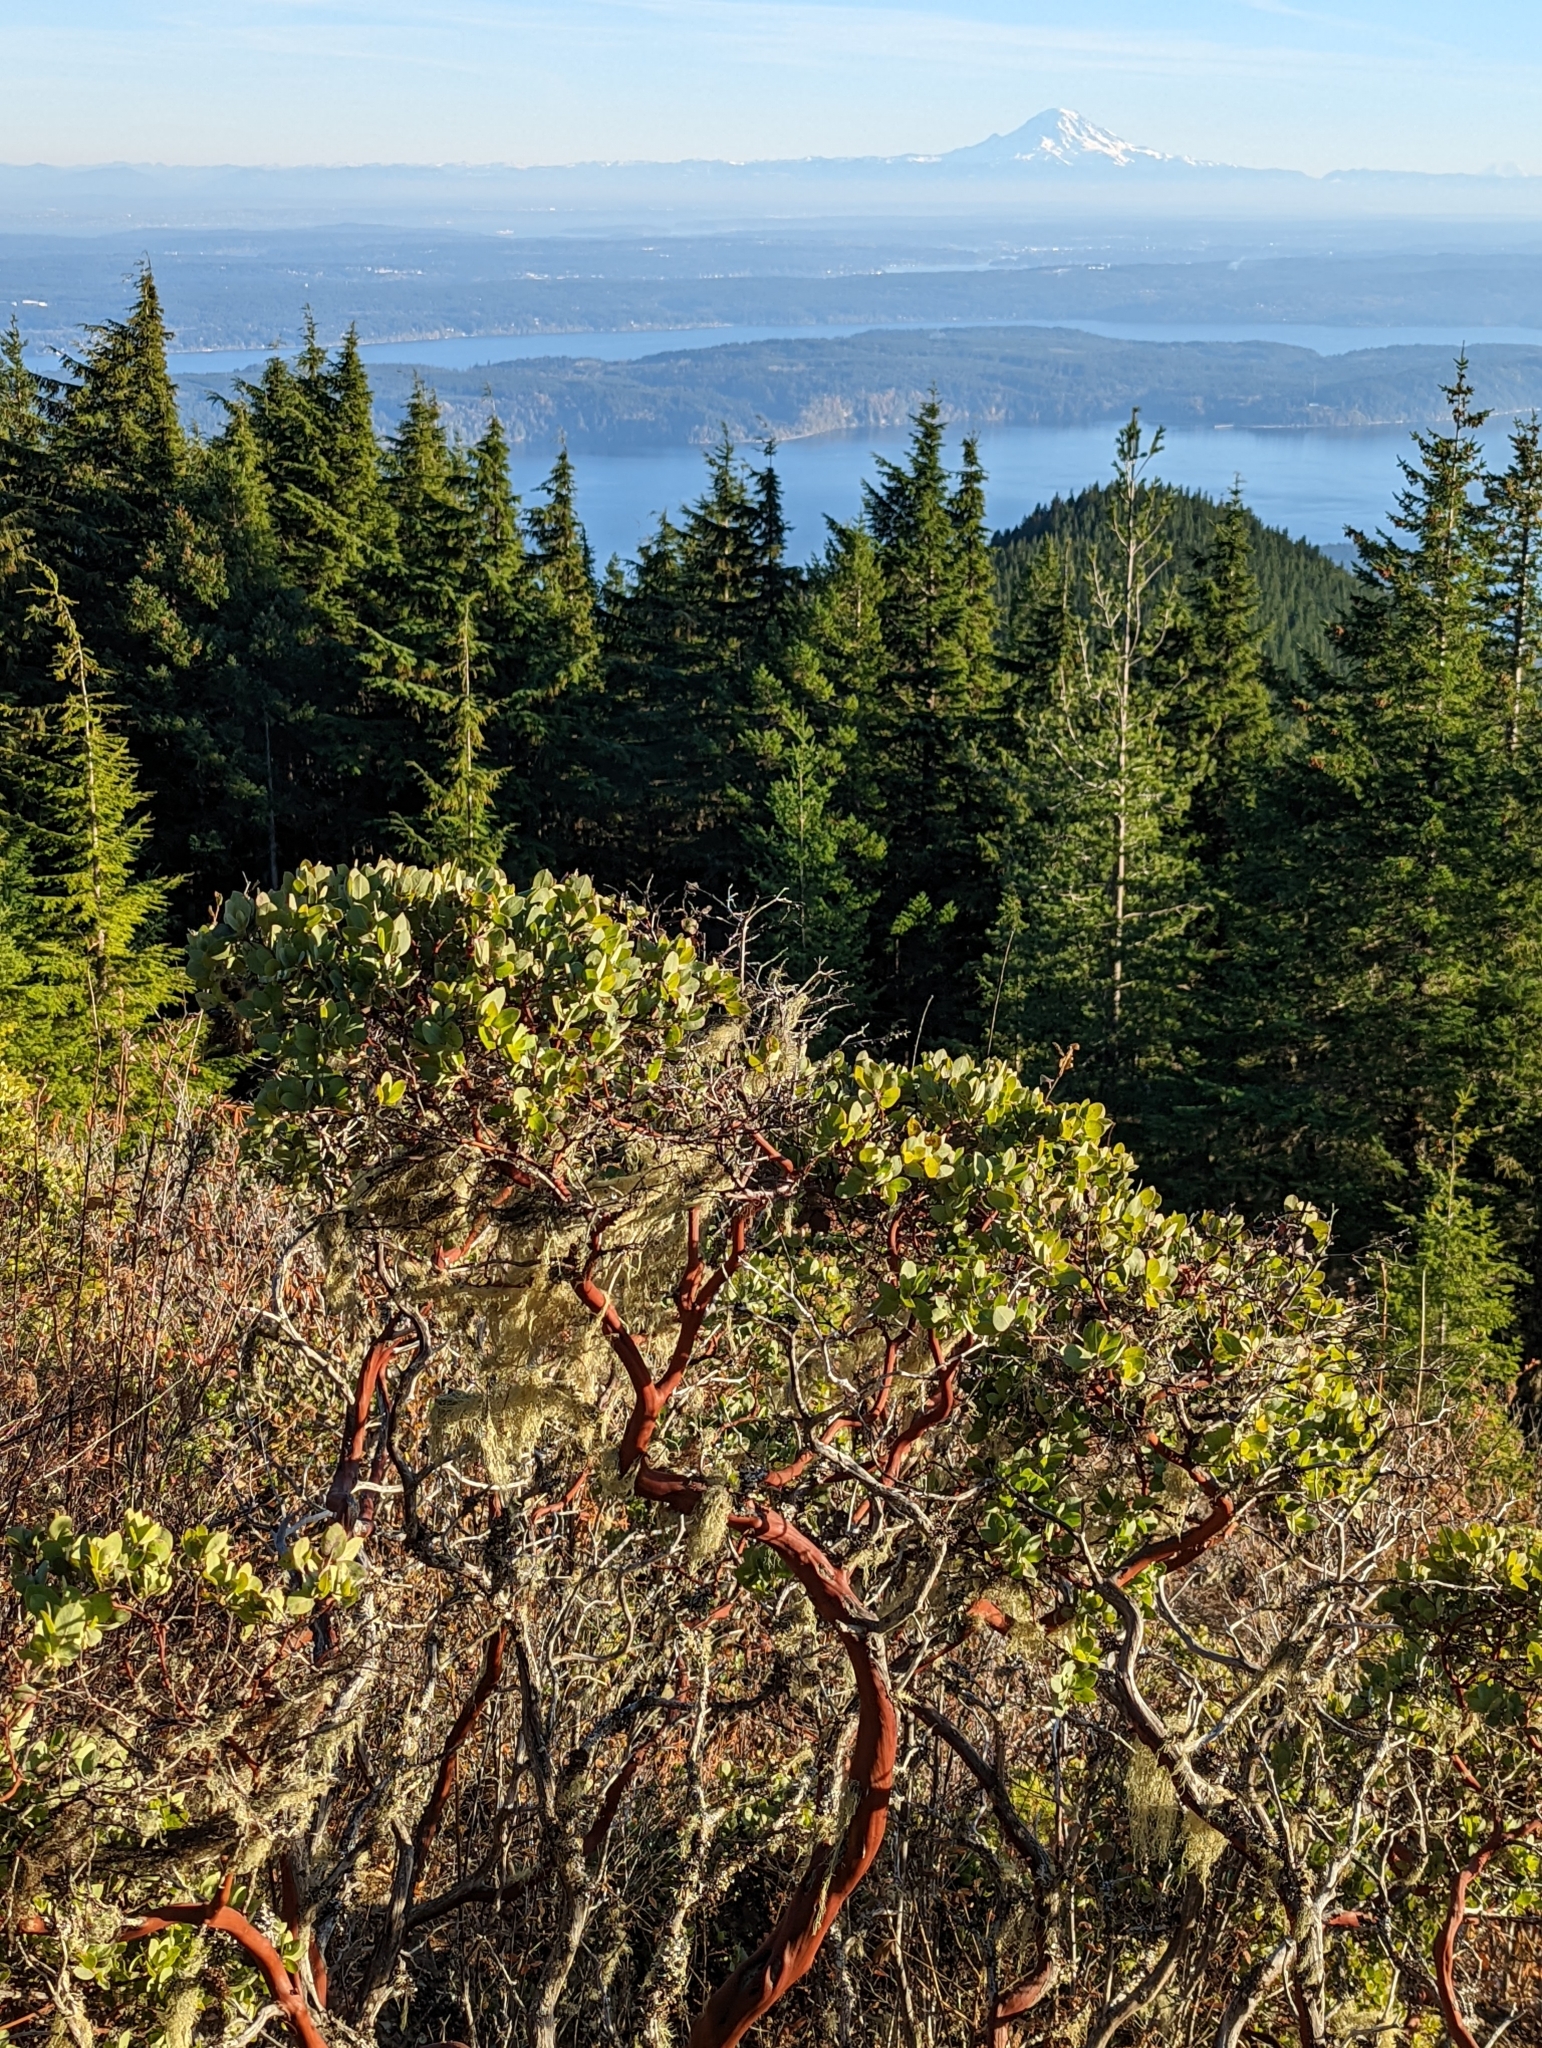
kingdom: Plantae
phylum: Tracheophyta
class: Magnoliopsida
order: Ericales
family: Ericaceae
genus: Arctostaphylos
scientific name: Arctostaphylos columbiana
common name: Bristly bearberry
